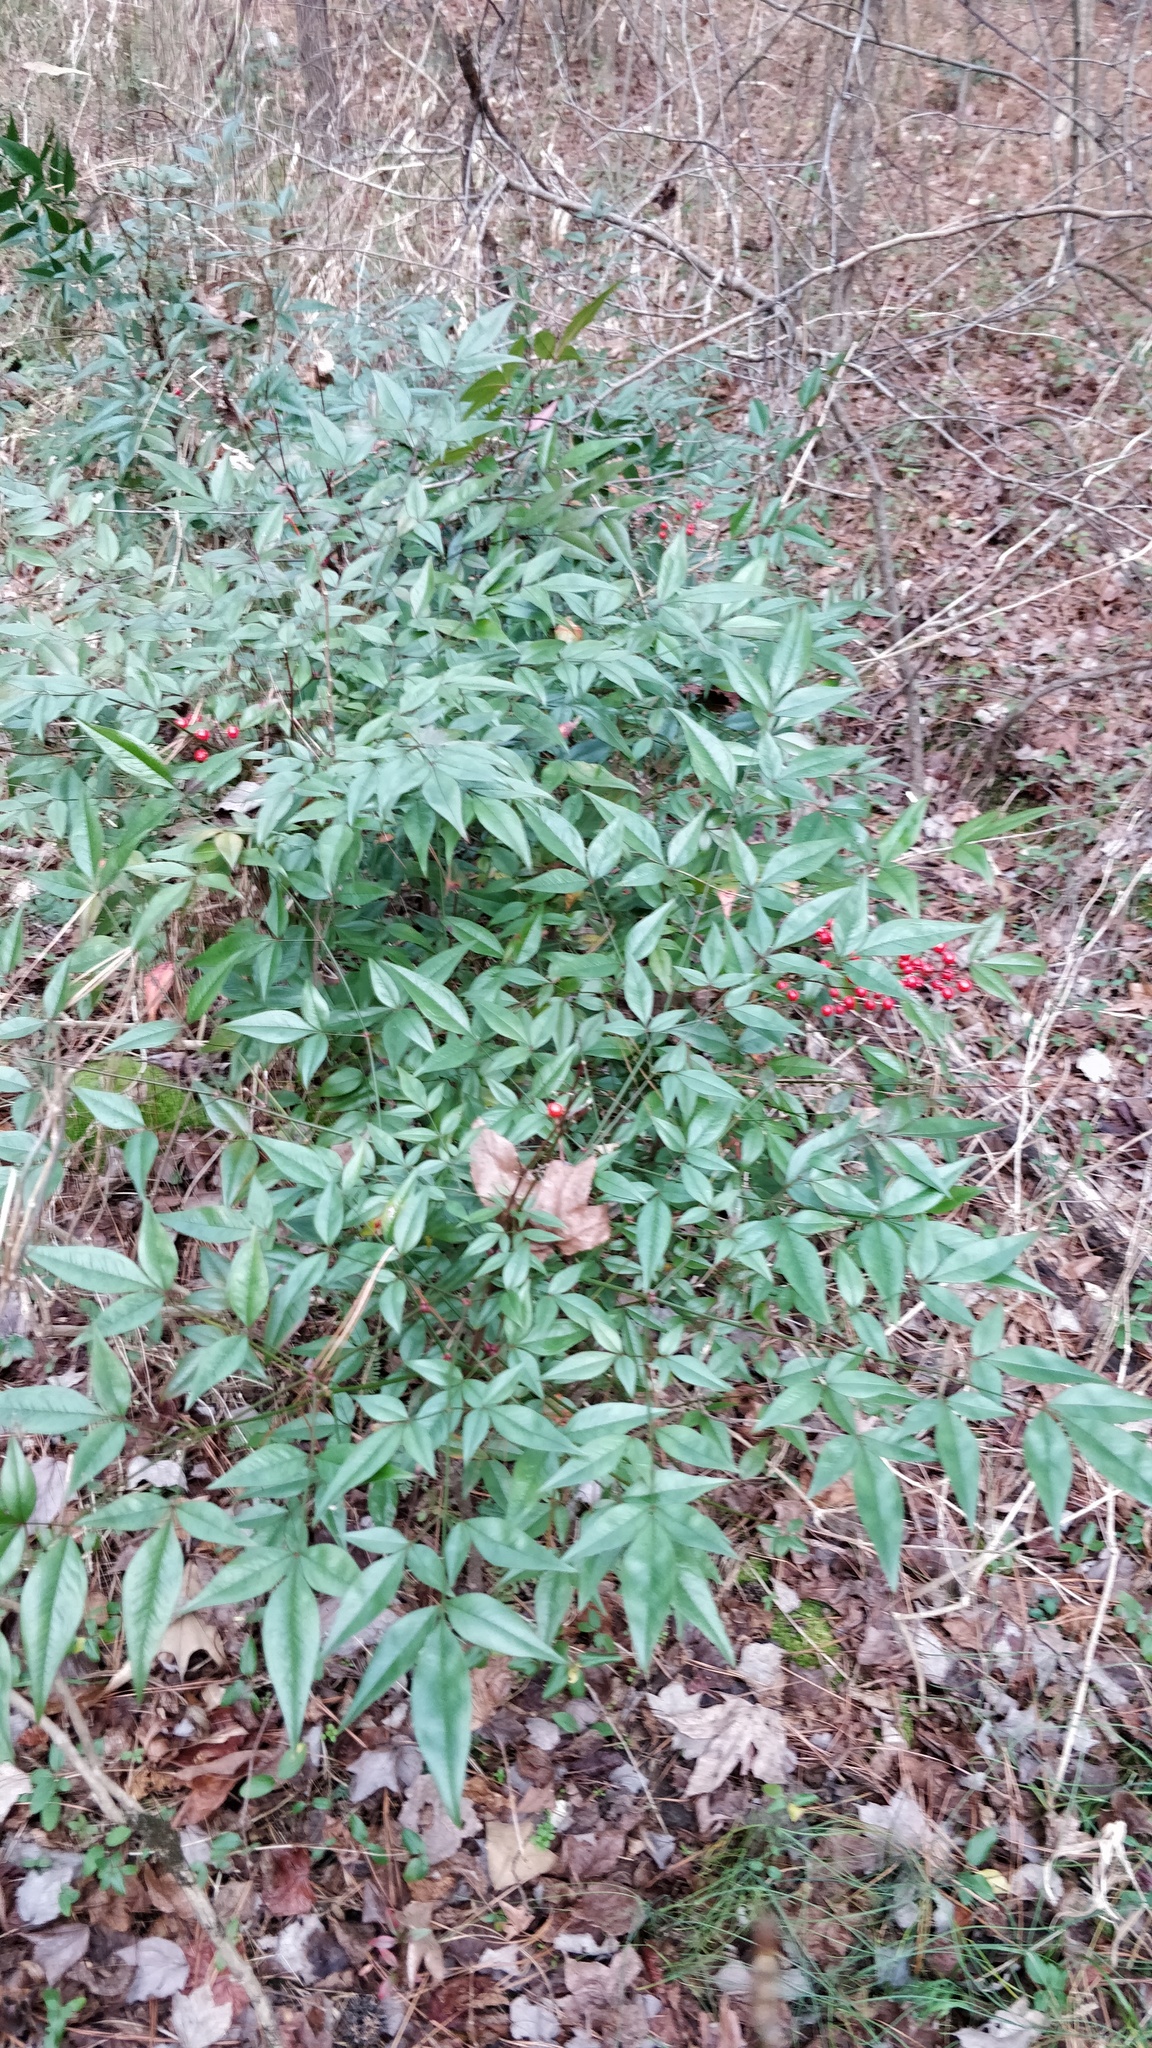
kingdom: Plantae
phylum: Tracheophyta
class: Magnoliopsida
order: Ranunculales
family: Berberidaceae
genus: Nandina
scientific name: Nandina domestica
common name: Sacred bamboo
